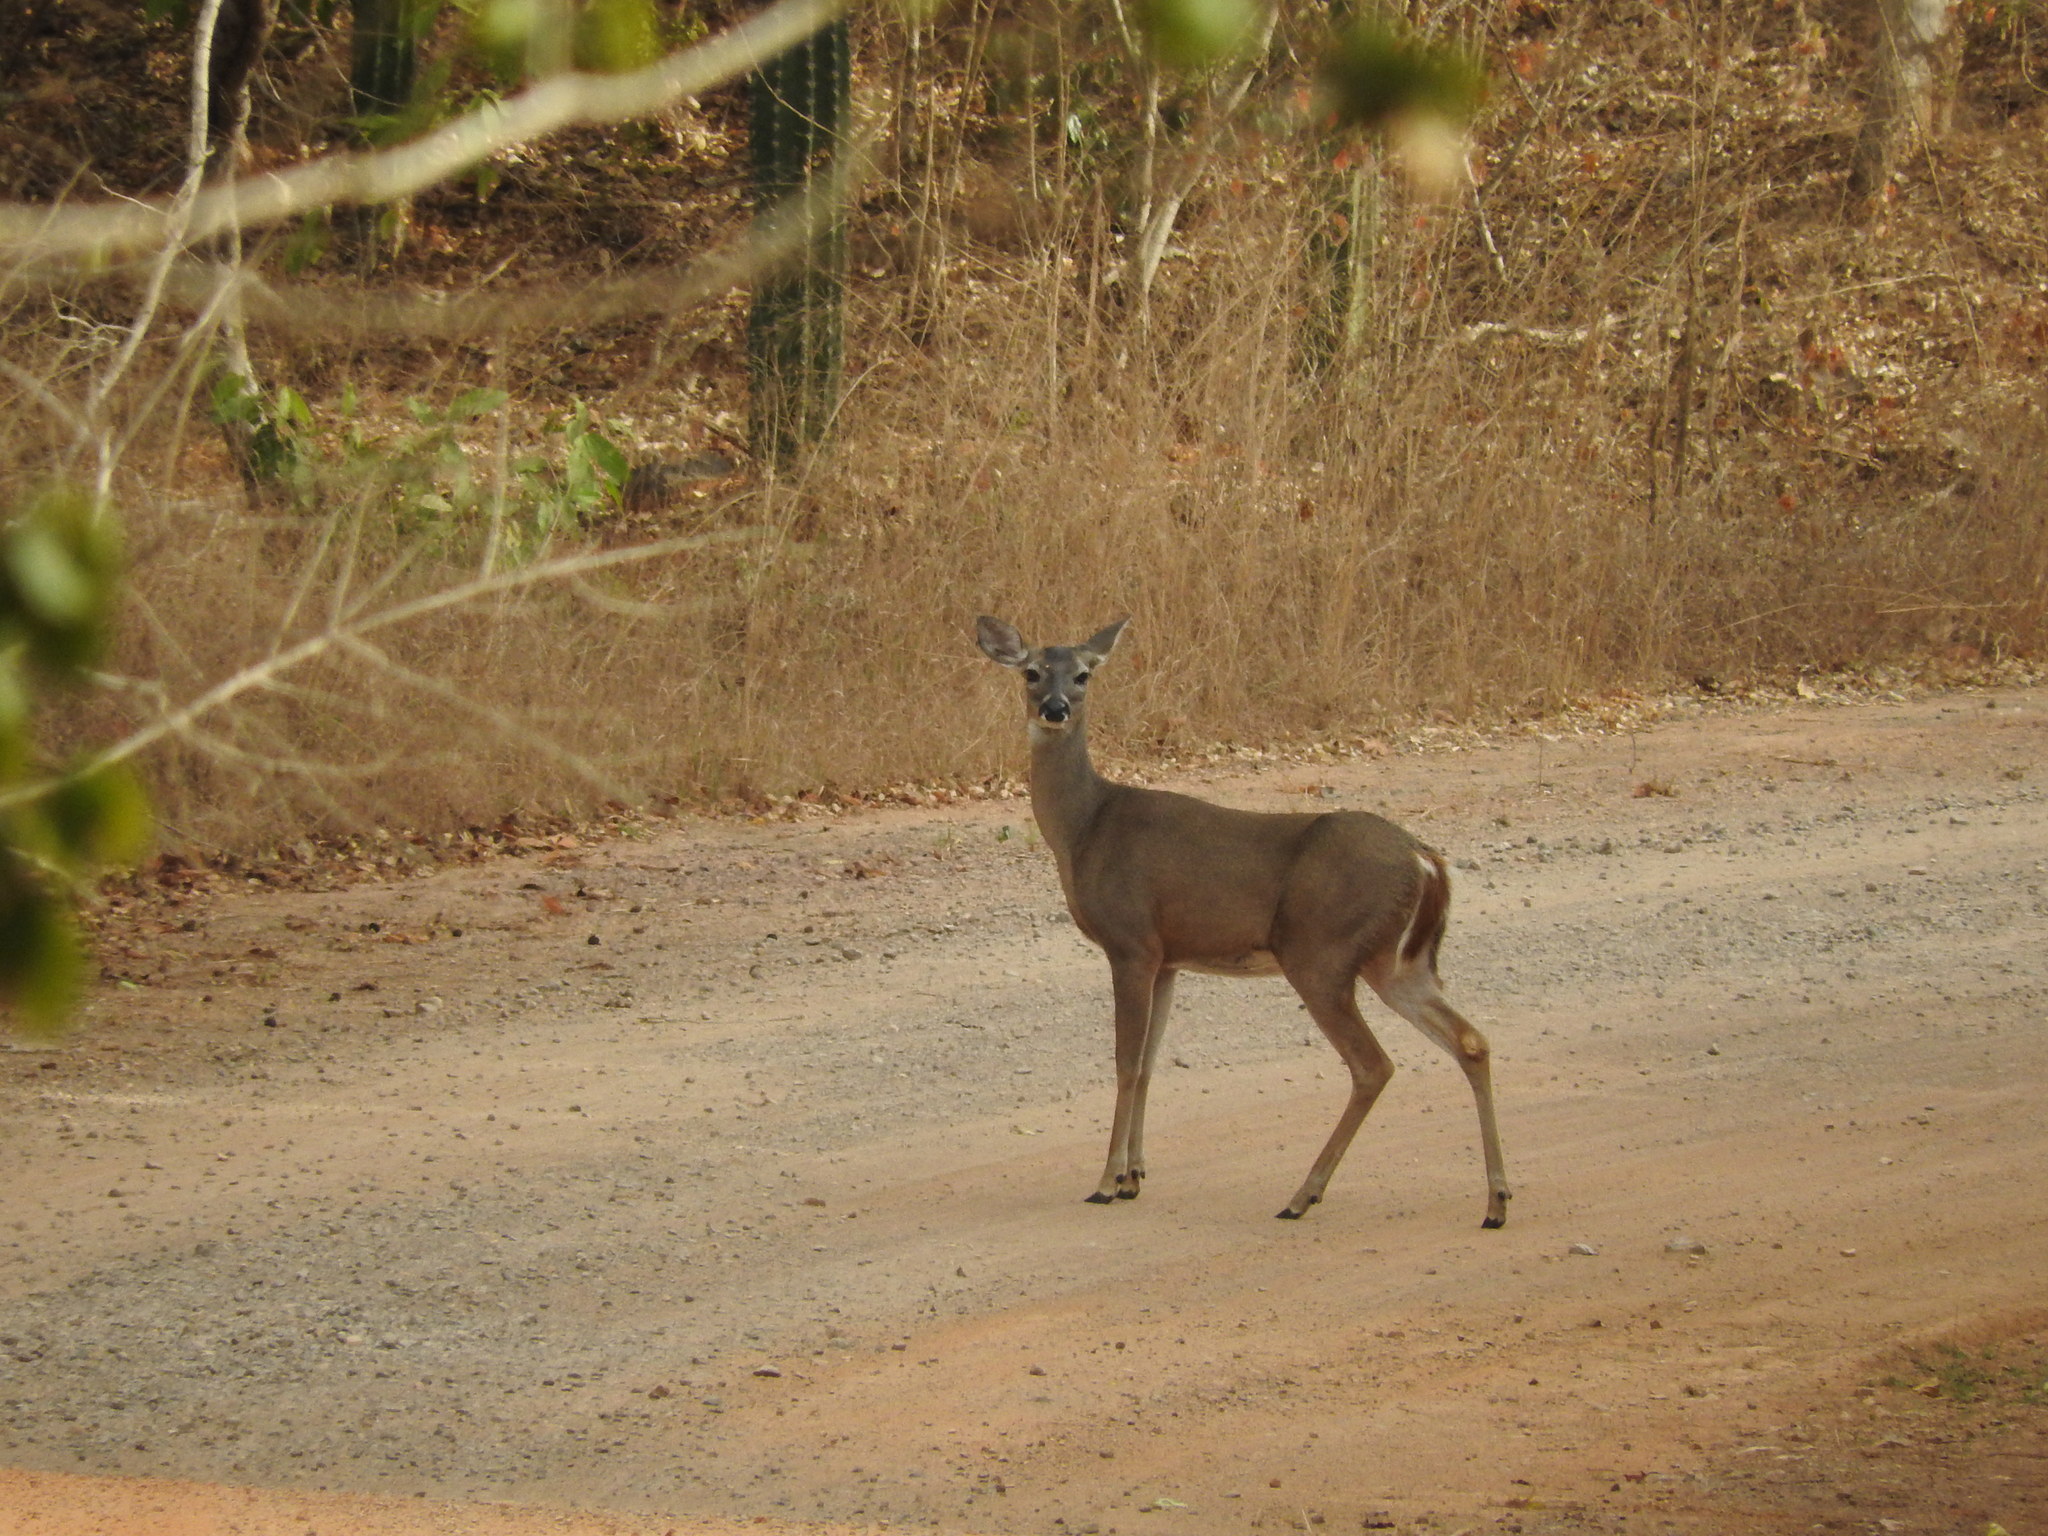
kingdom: Animalia
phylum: Chordata
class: Mammalia
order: Artiodactyla
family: Cervidae
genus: Odocoileus
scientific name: Odocoileus virginianus
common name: White-tailed deer
